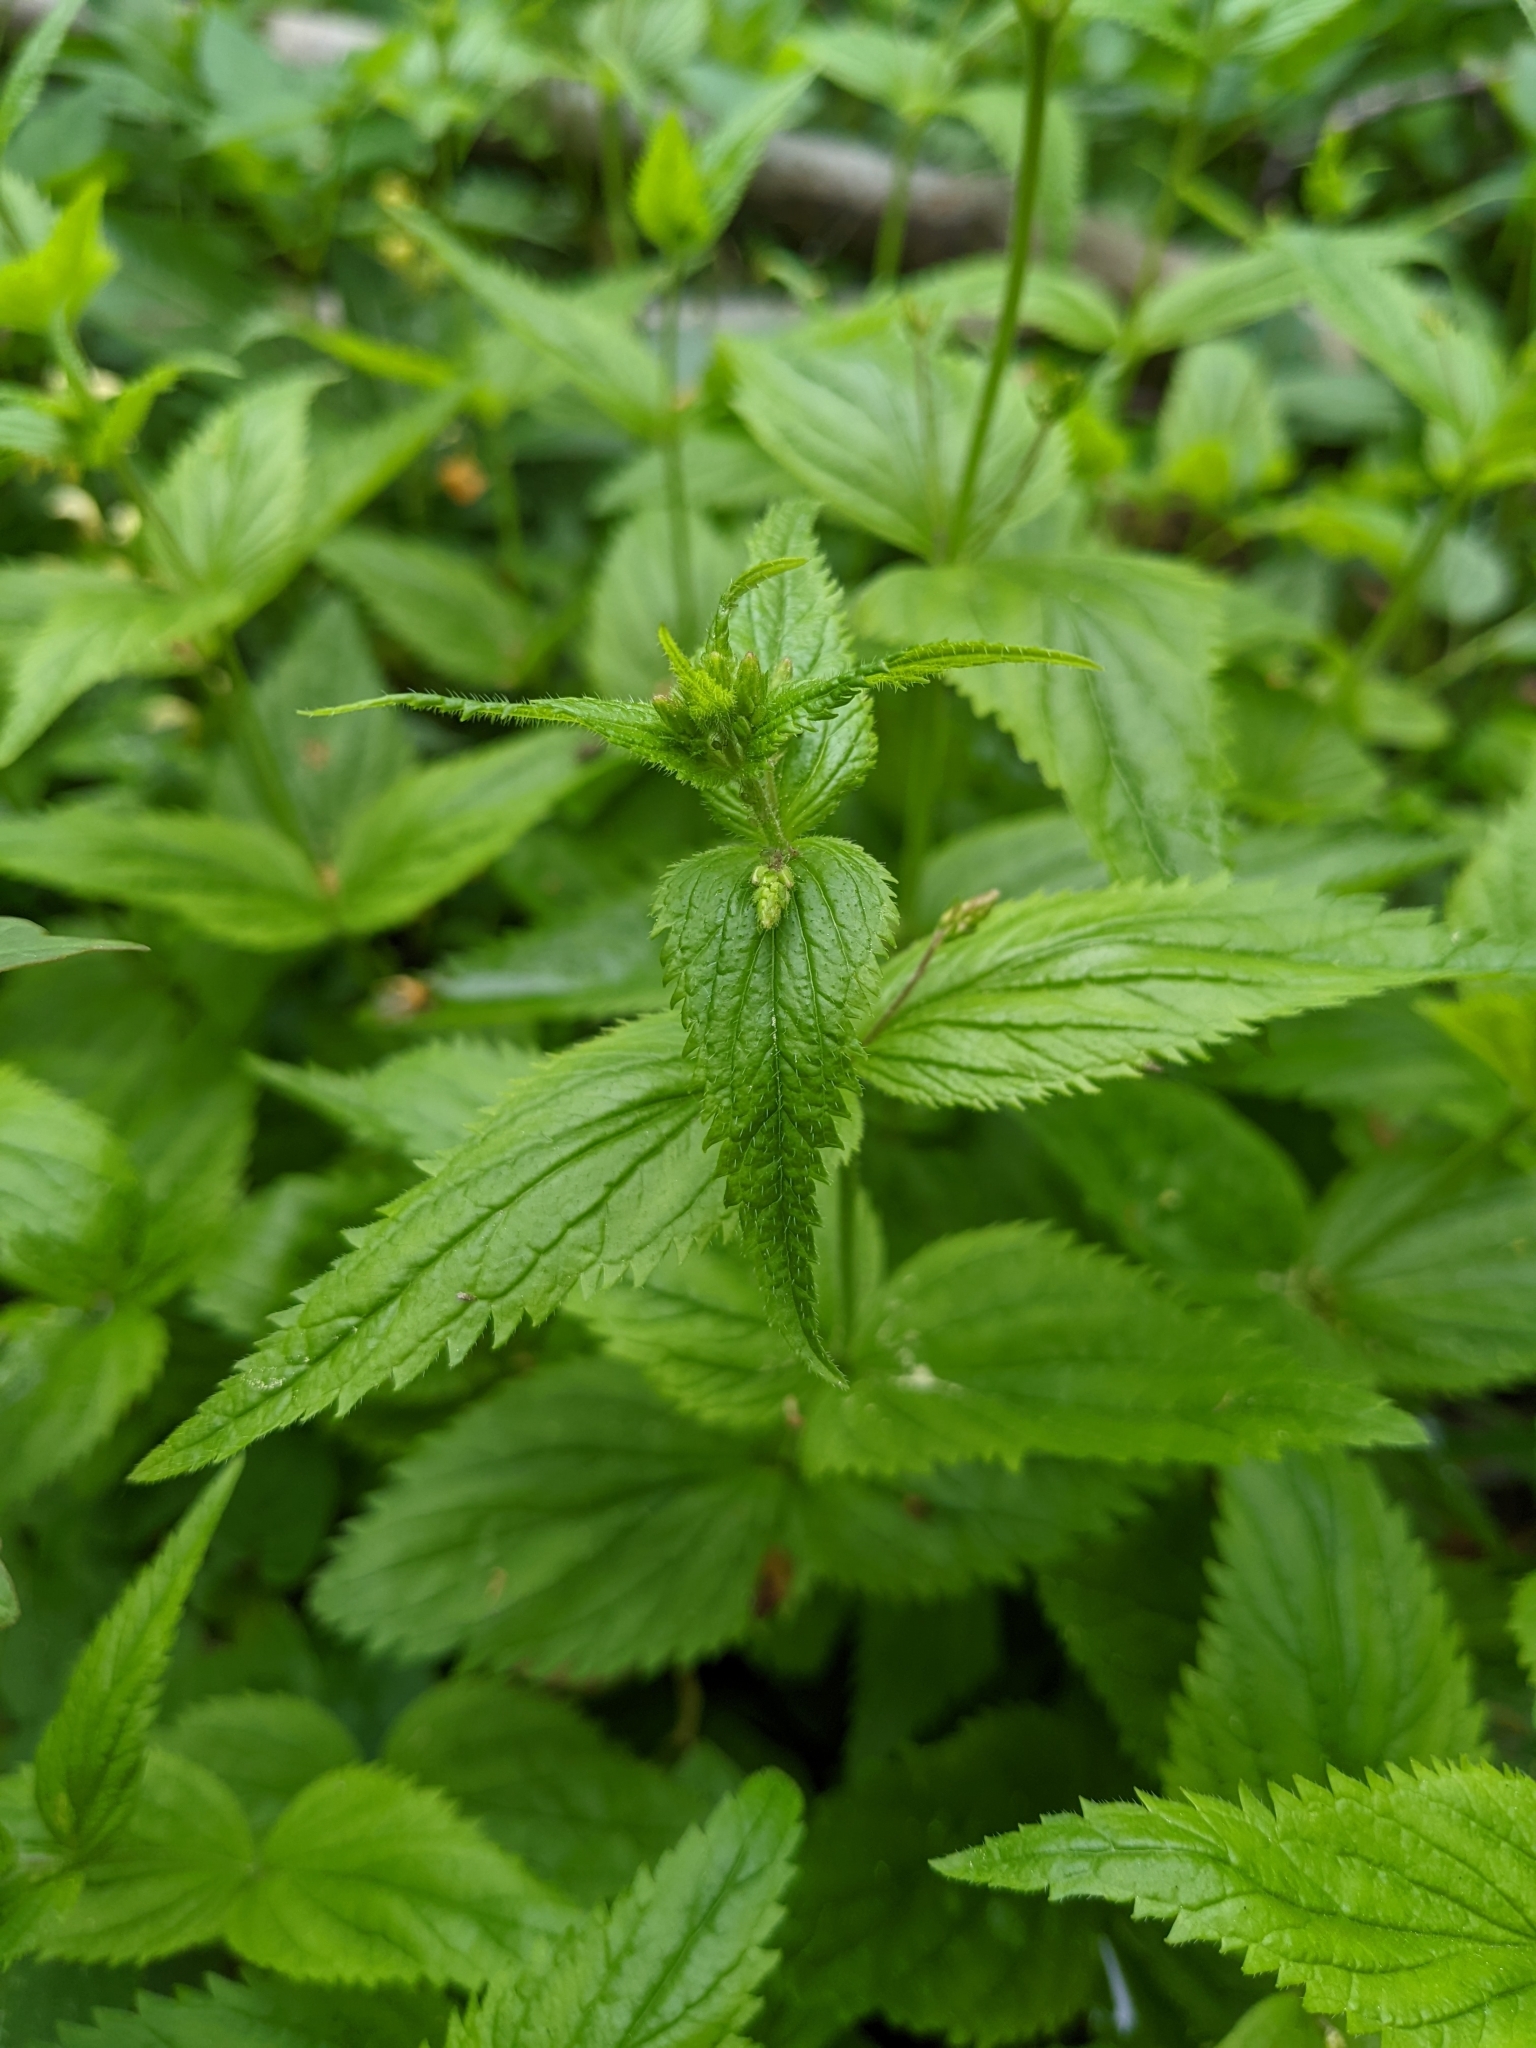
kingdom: Plantae
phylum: Tracheophyta
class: Magnoliopsida
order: Lamiales
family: Plantaginaceae
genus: Veronica
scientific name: Veronica urticifolia
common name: Nettle-leaf speedwell
